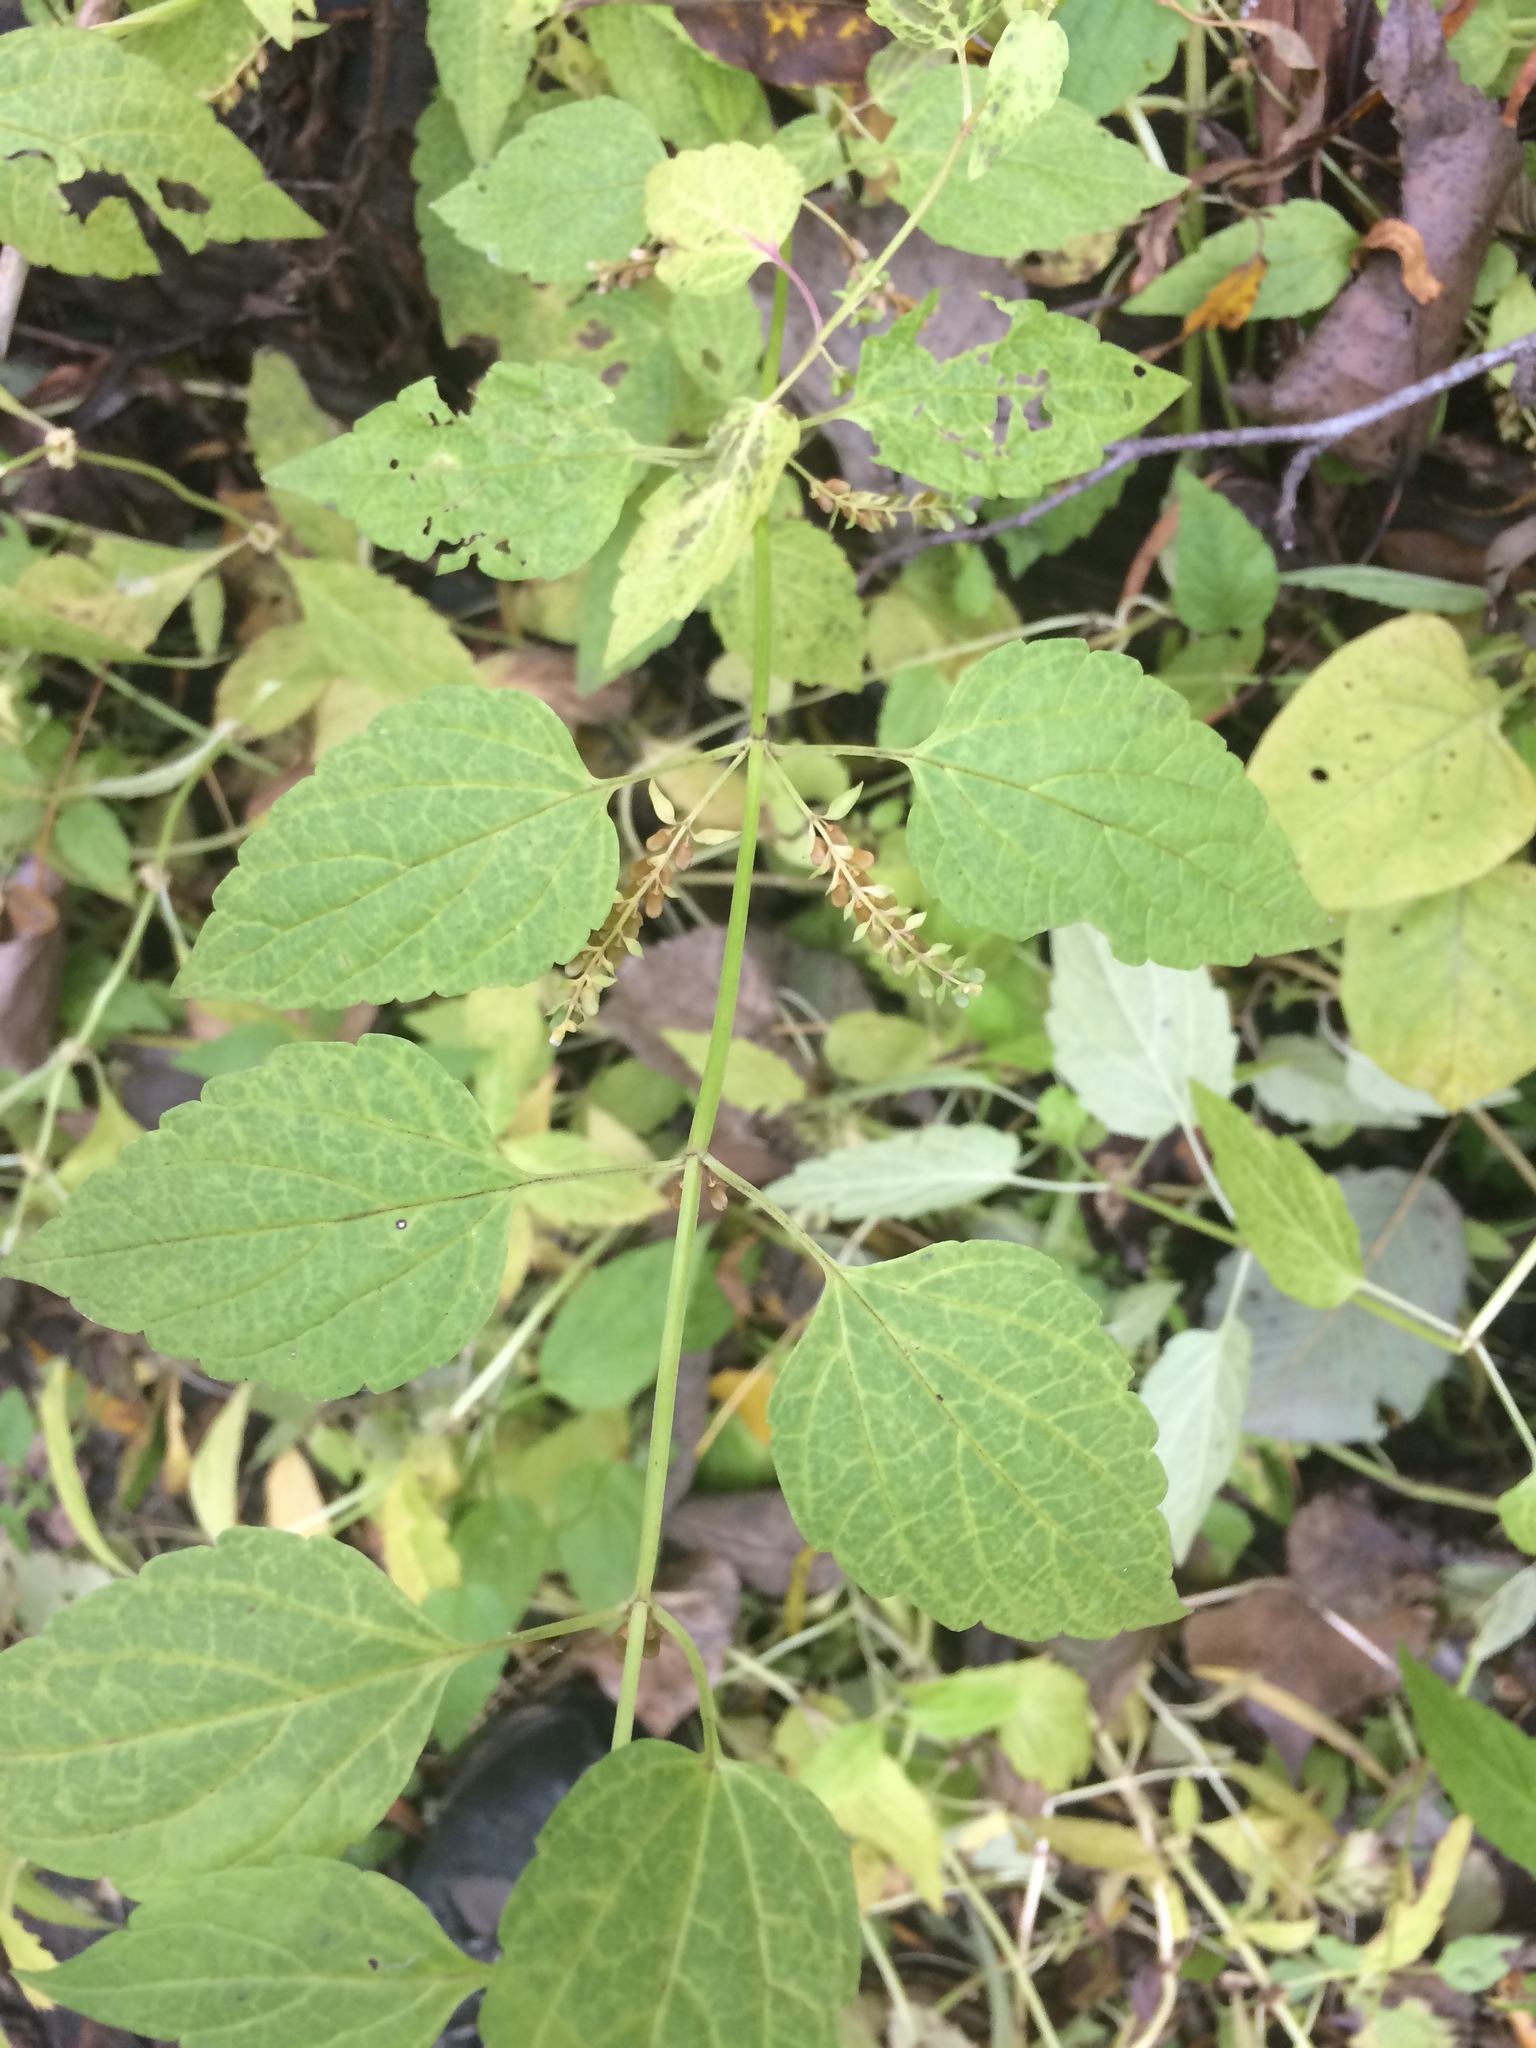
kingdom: Plantae
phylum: Tracheophyta
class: Magnoliopsida
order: Lamiales
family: Lamiaceae
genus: Scutellaria
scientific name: Scutellaria lateriflora
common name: Blue skullcap
